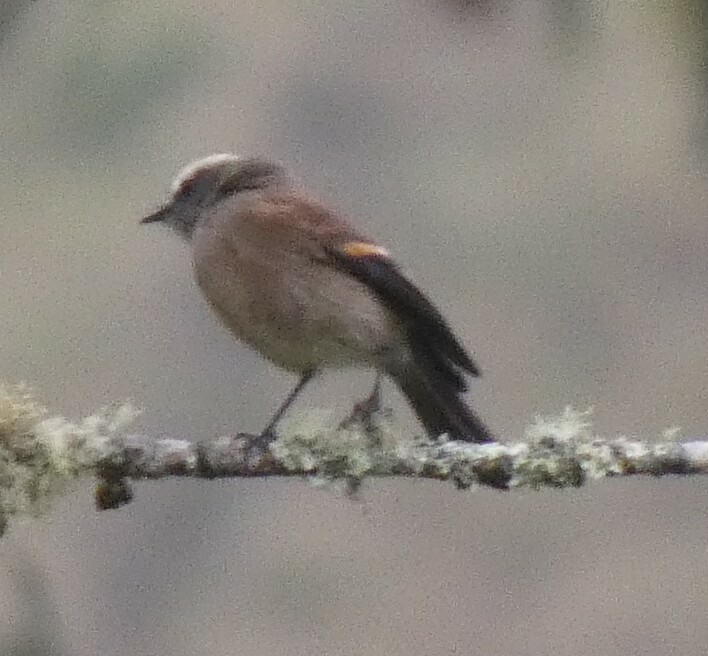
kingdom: Animalia
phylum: Chordata
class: Aves
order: Passeriformes
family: Tyrannidae
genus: Ochthoeca
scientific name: Ochthoeca fumicolor
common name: Brown-backed chat-tyrant
